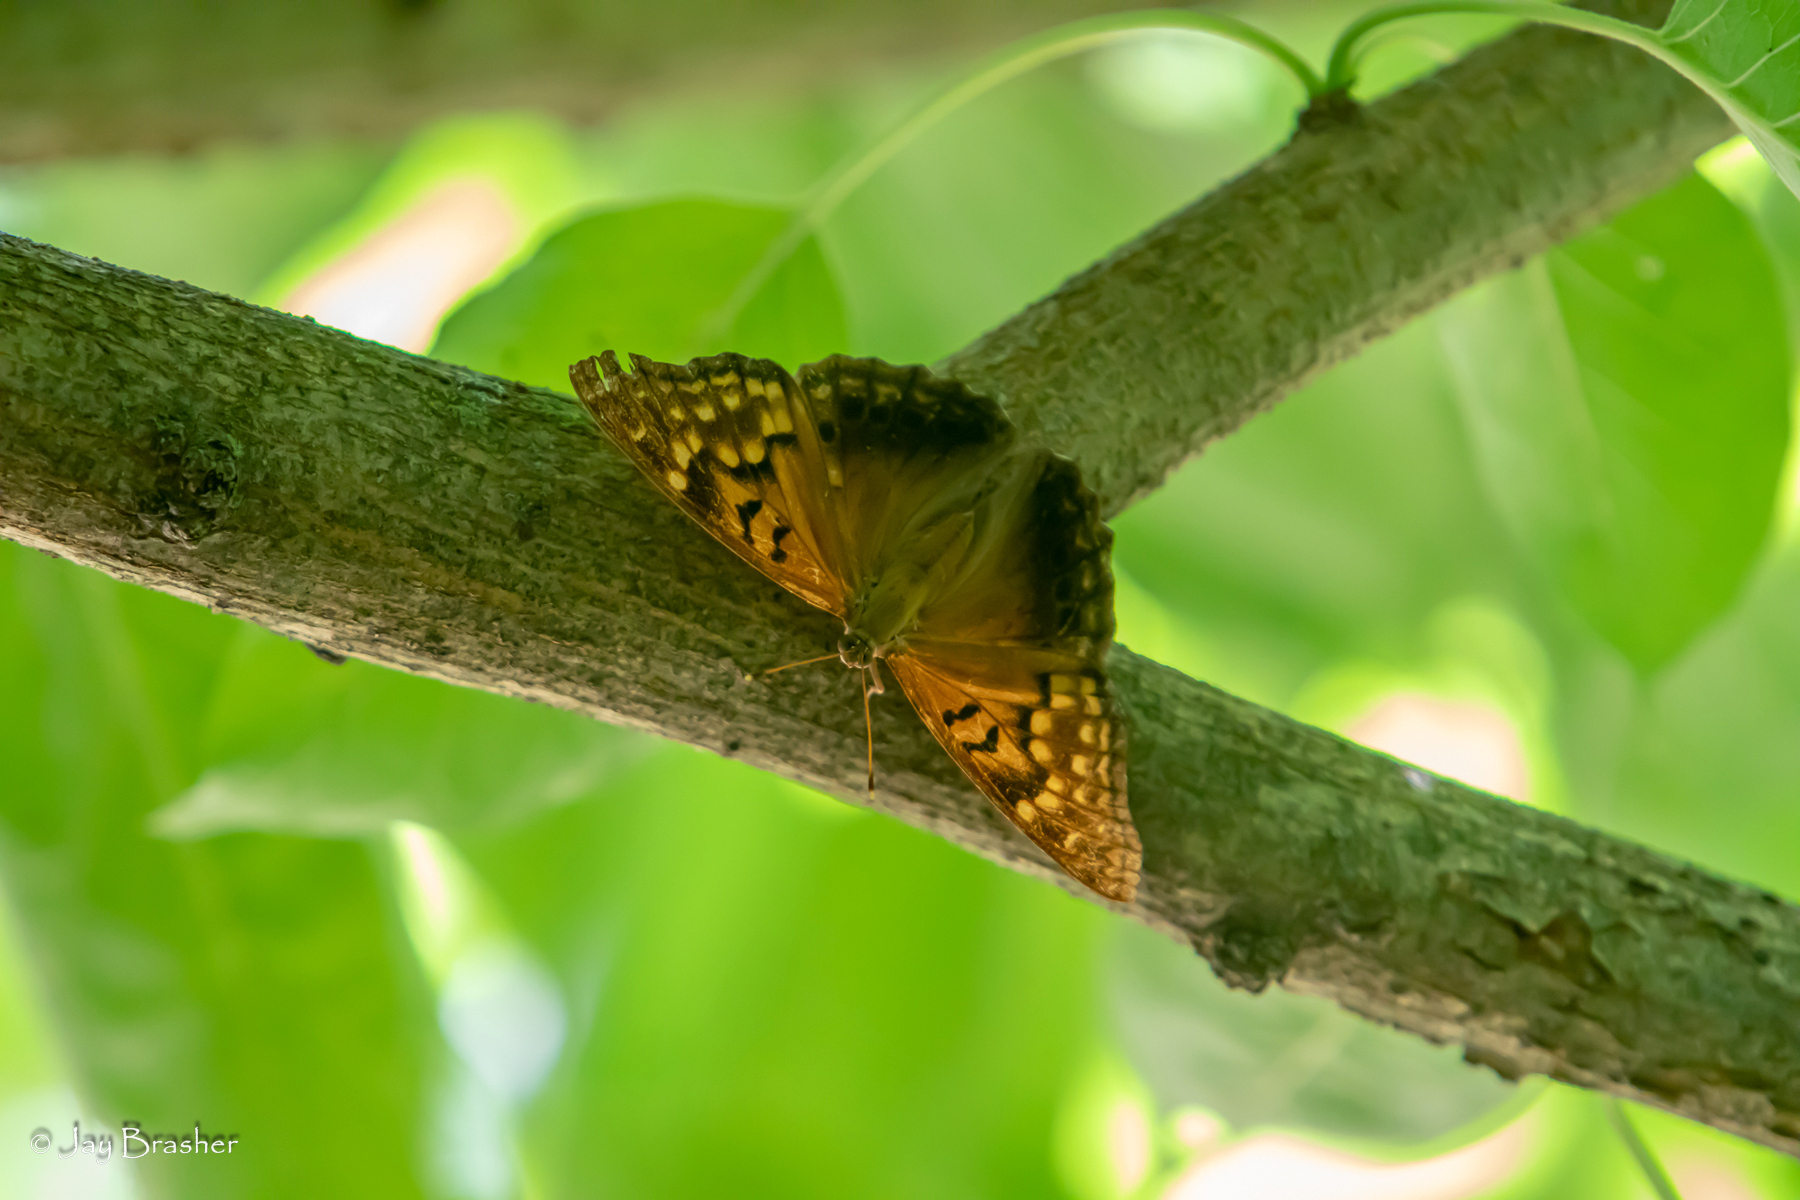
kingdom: Animalia
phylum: Arthropoda
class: Insecta
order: Lepidoptera
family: Nymphalidae
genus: Asterocampa
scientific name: Asterocampa clyton
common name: Tawny emperor
